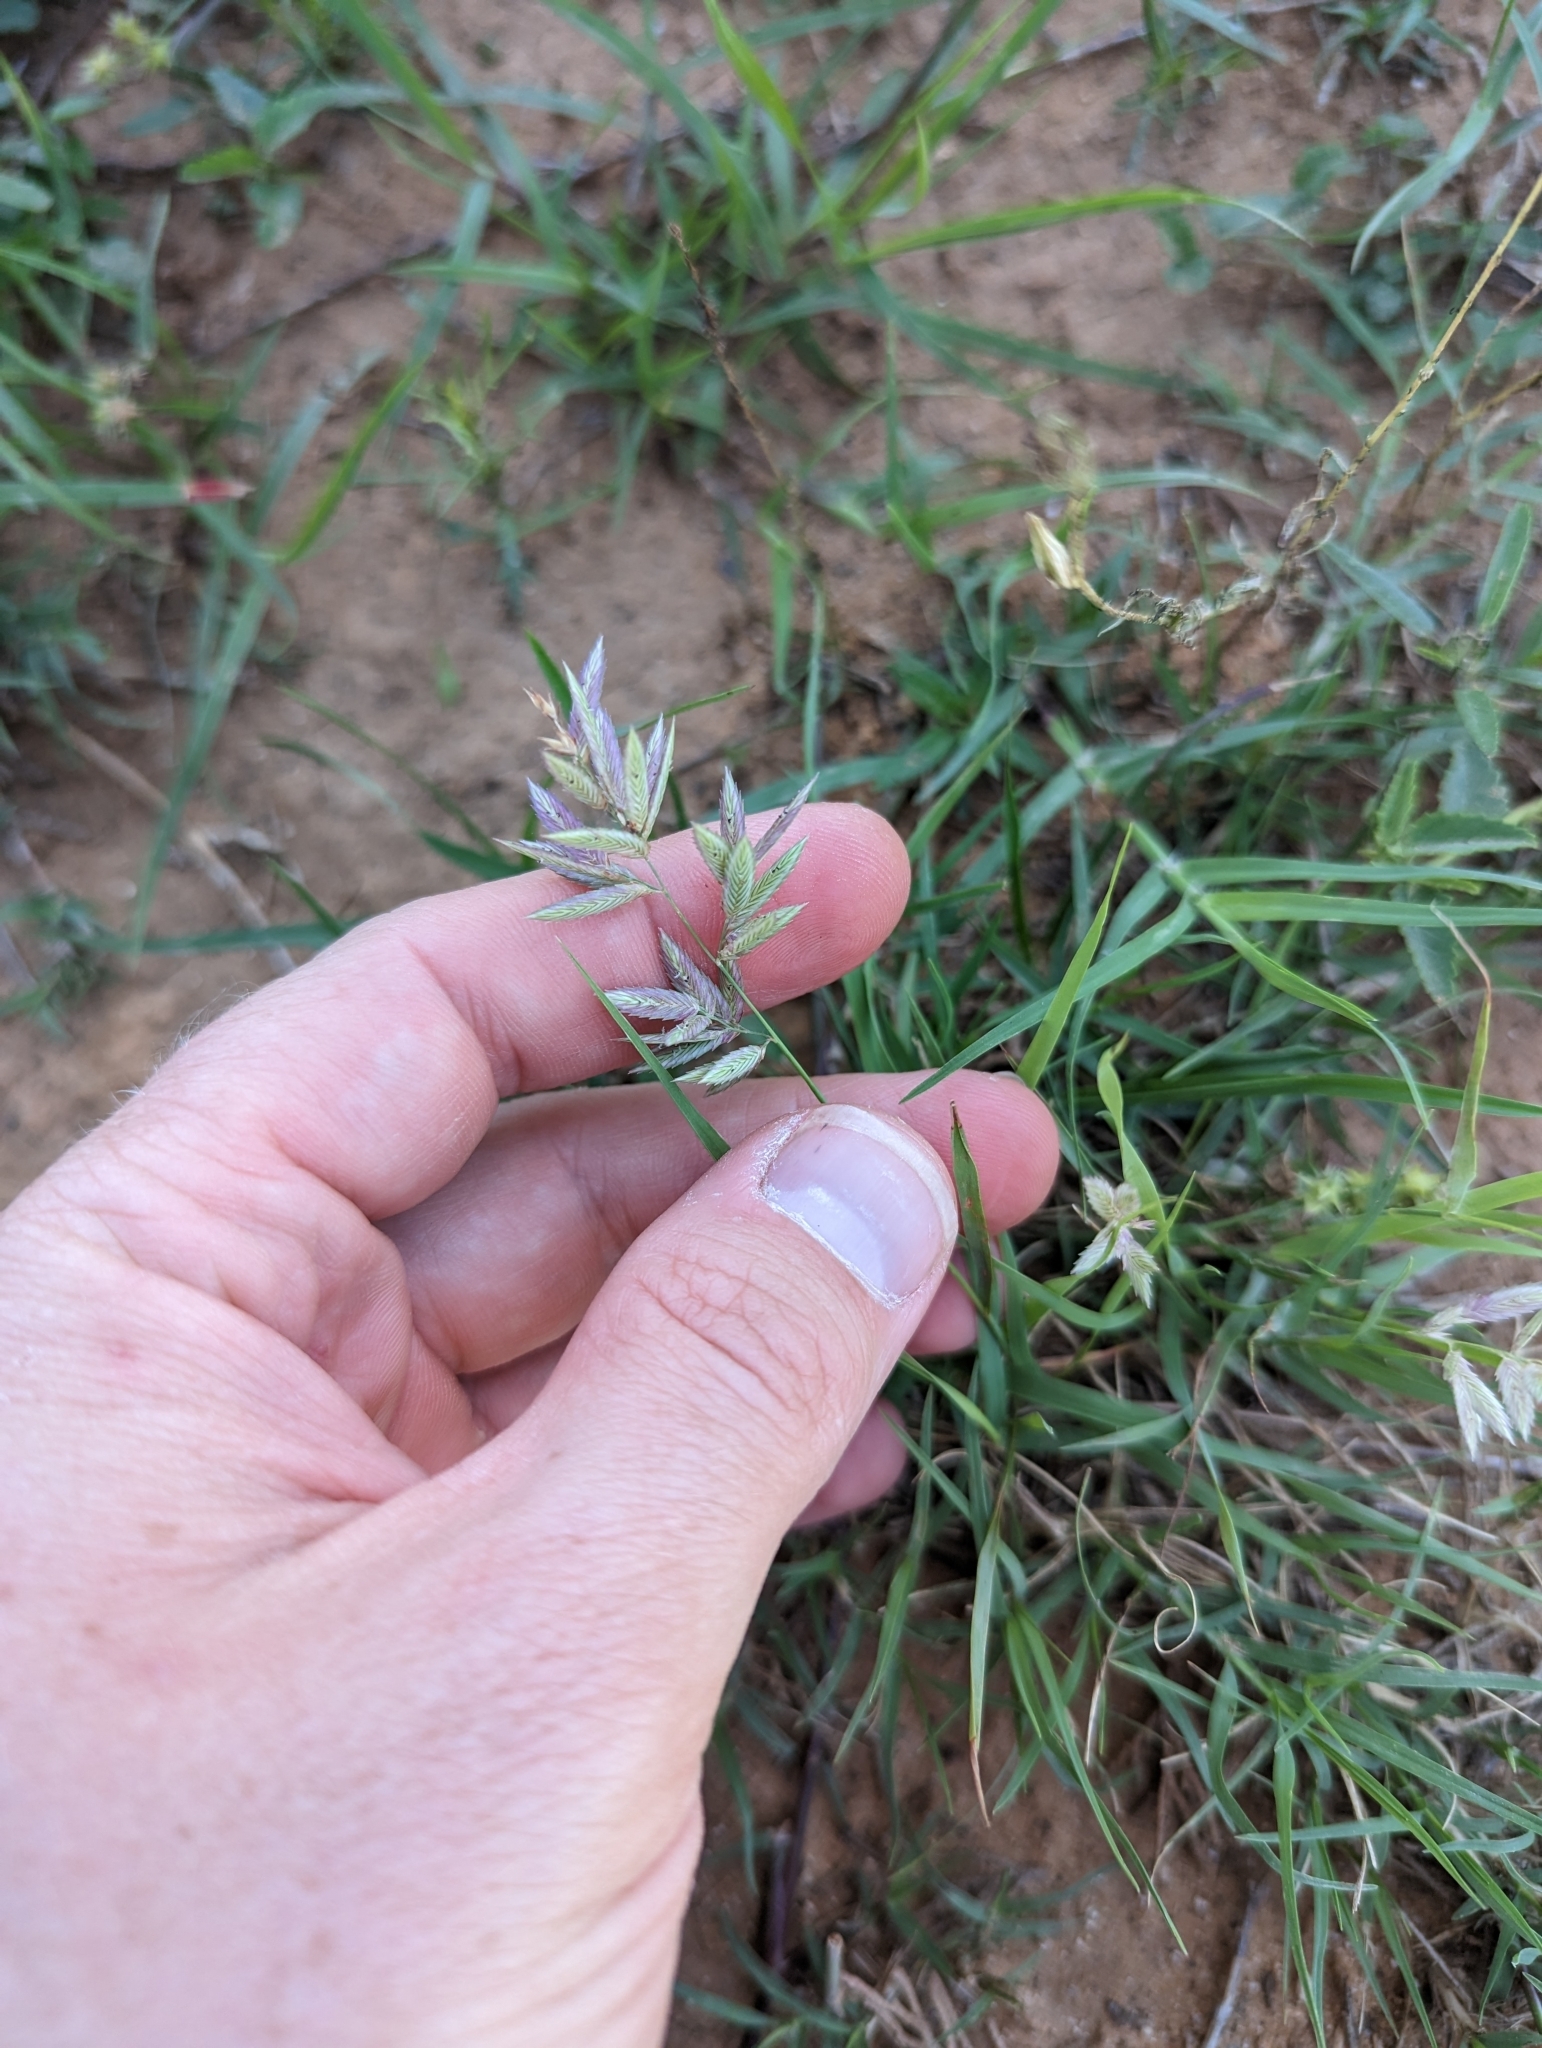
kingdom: Plantae
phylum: Tracheophyta
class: Liliopsida
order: Poales
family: Poaceae
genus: Eragrostis
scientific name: Eragrostis secundiflora
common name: Red love grass
